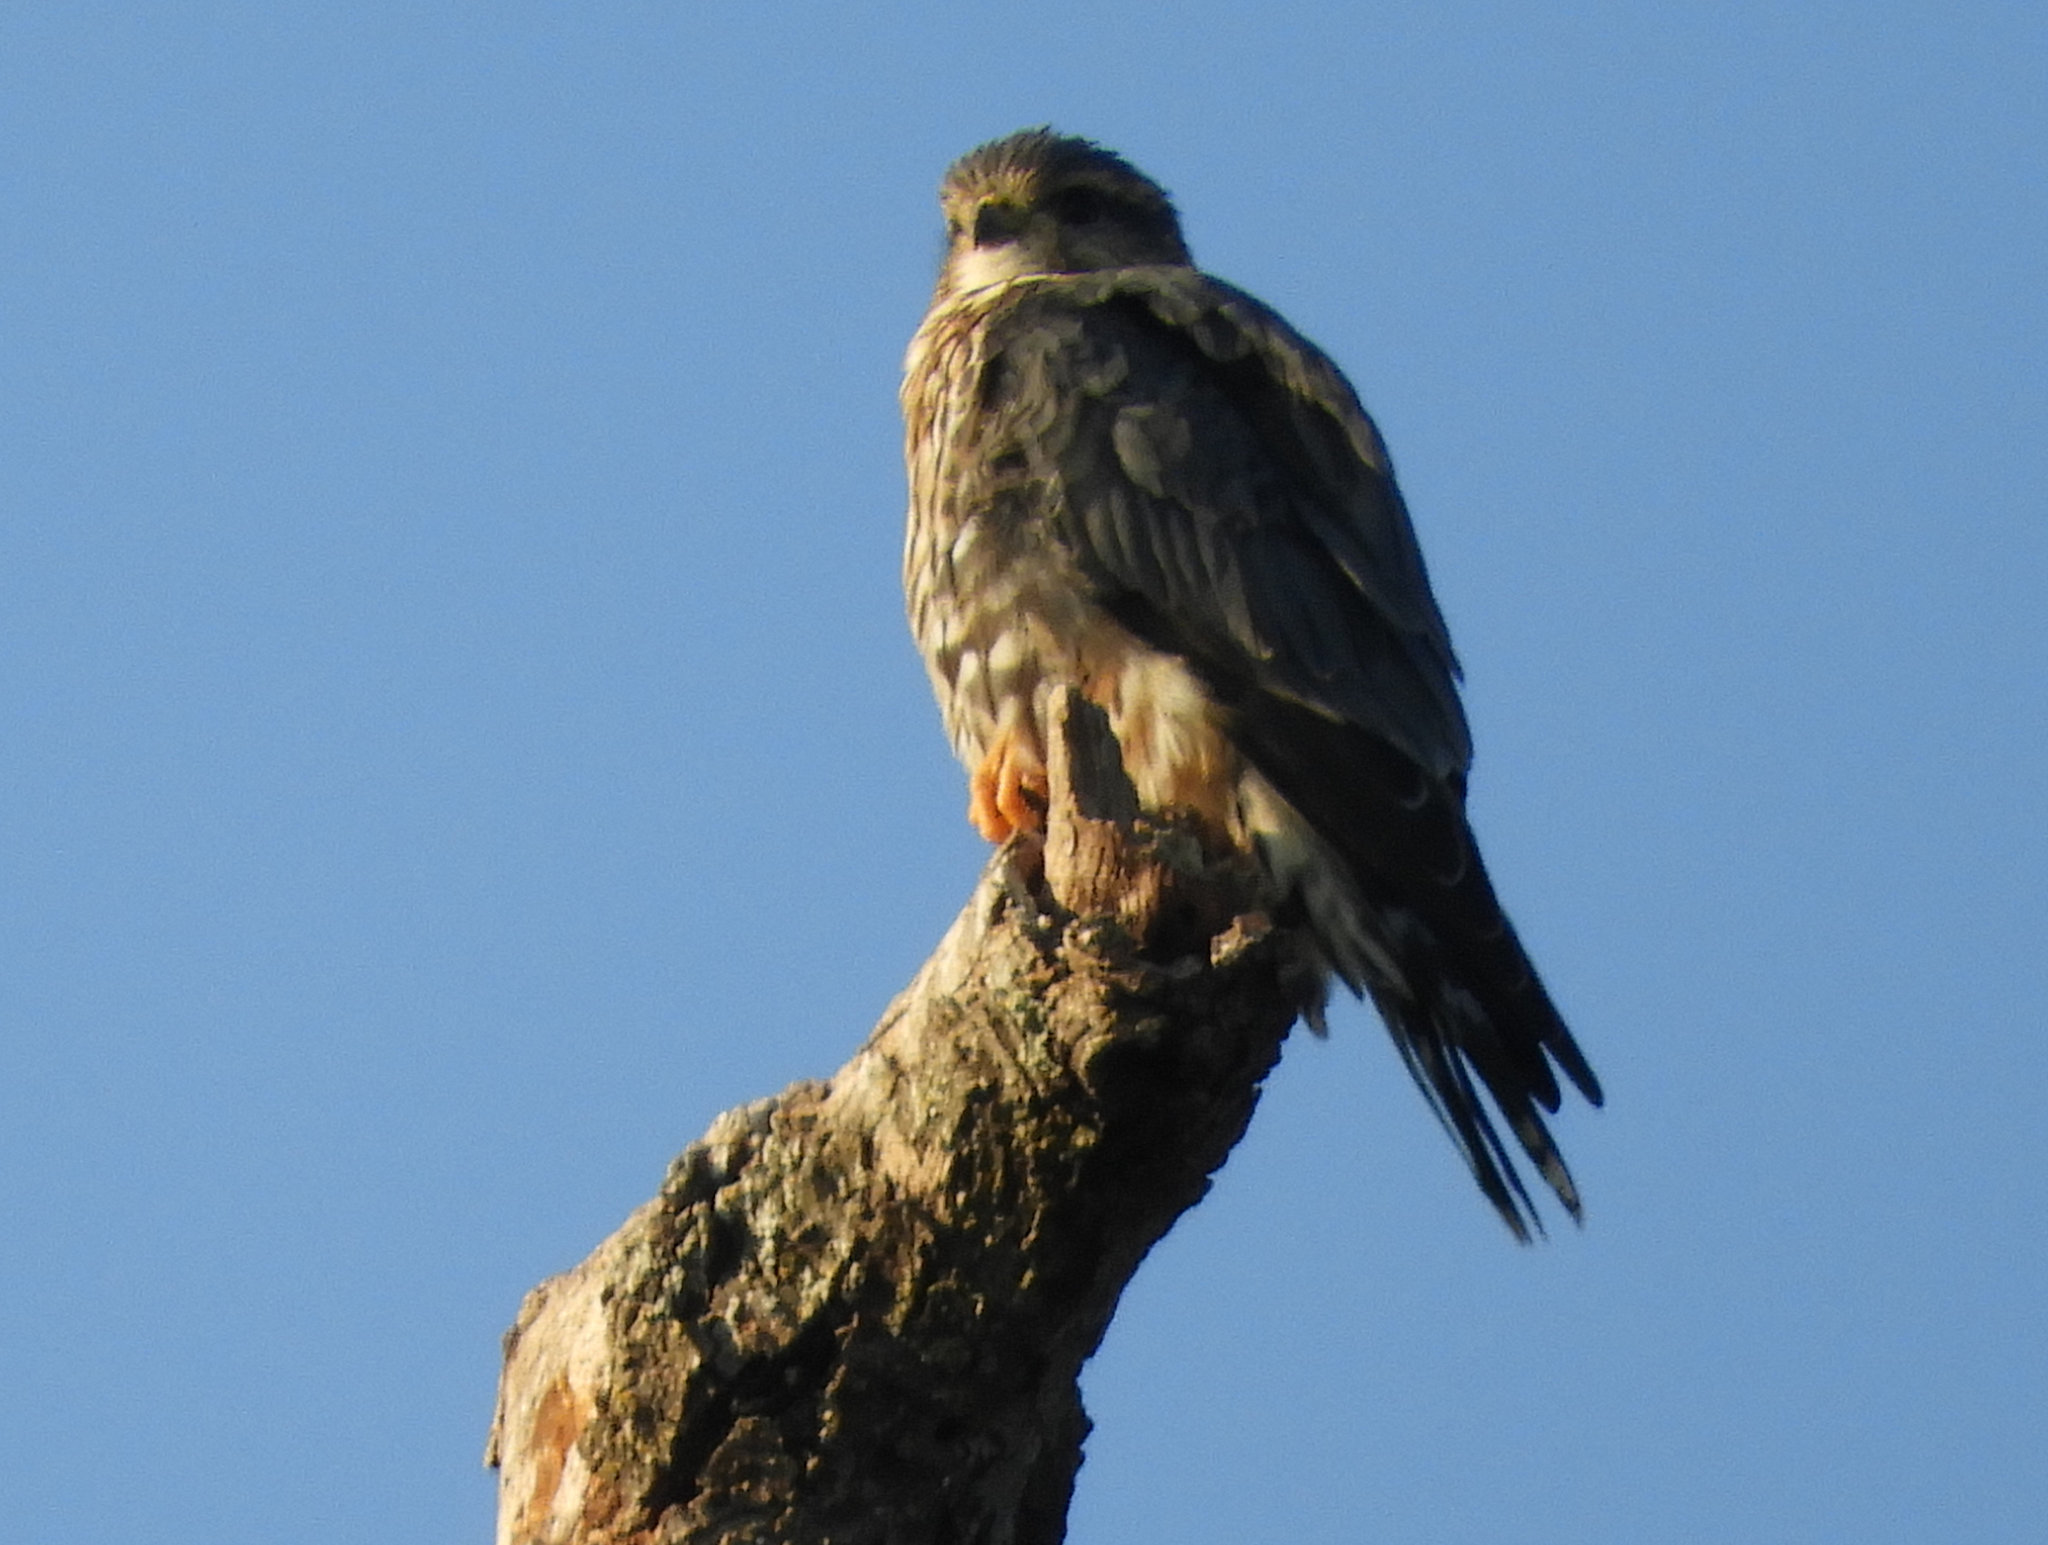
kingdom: Animalia
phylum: Chordata
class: Aves
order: Falconiformes
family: Falconidae
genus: Falco
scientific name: Falco columbarius
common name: Merlin
